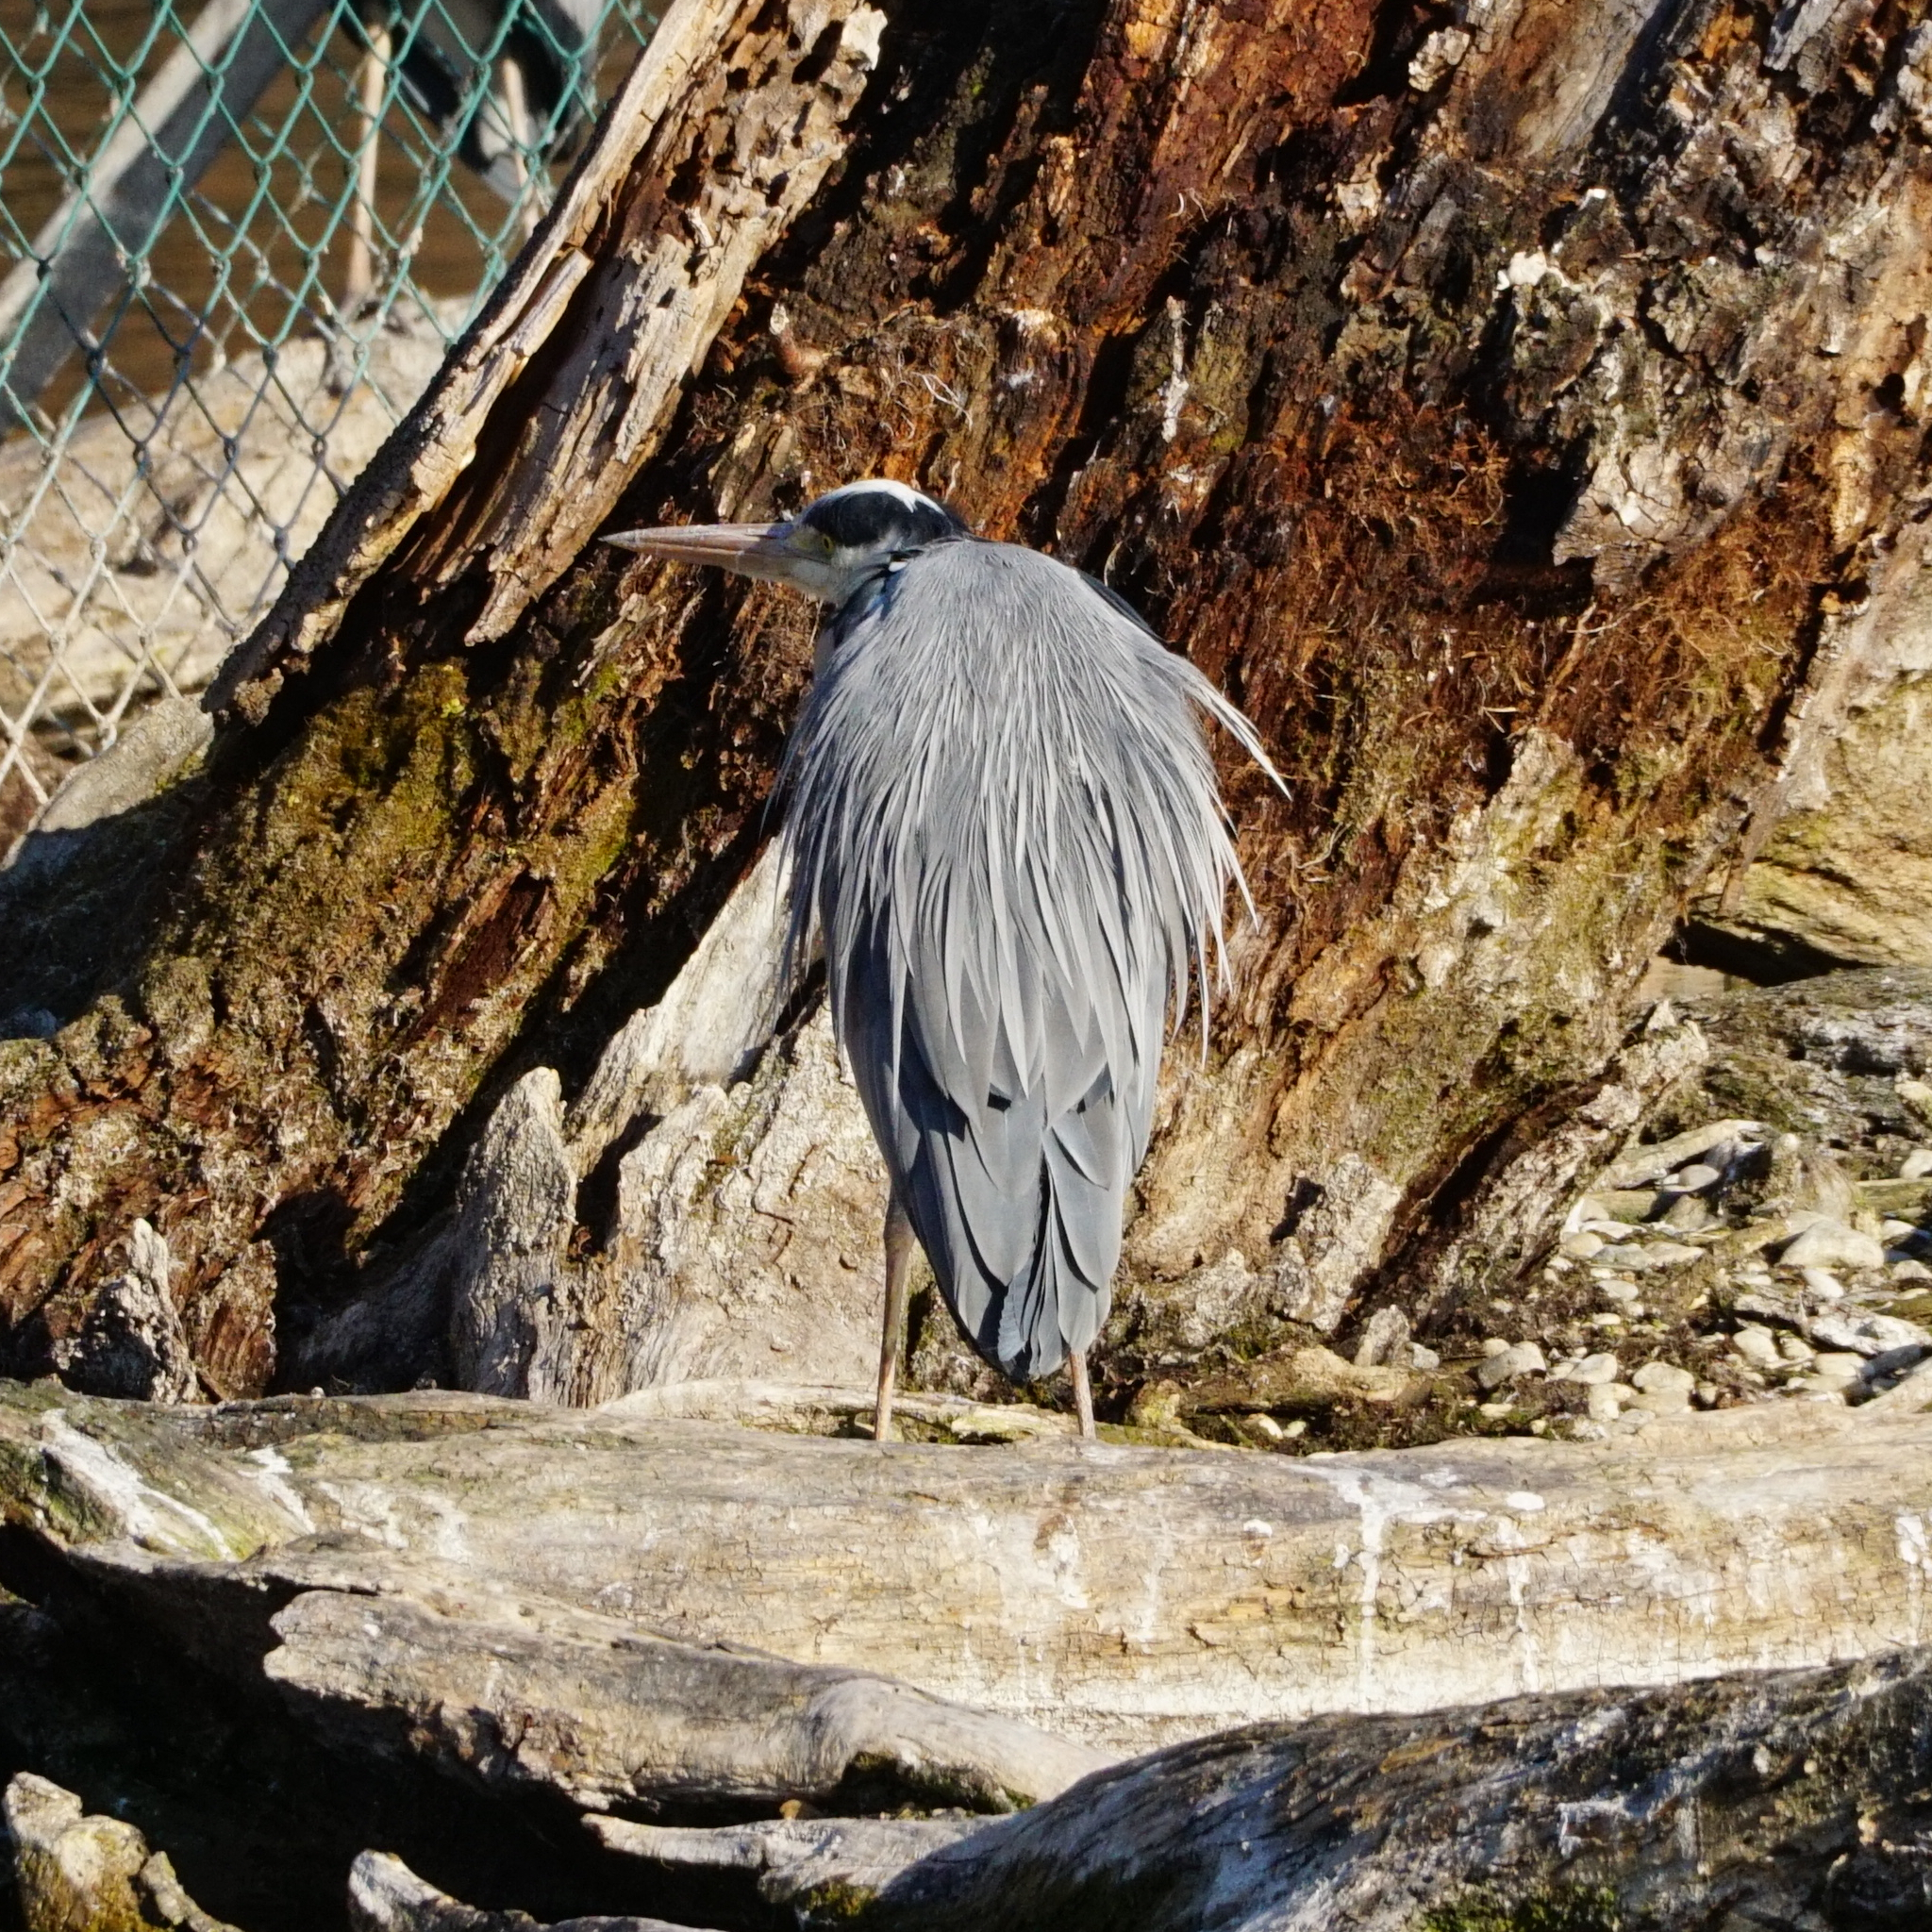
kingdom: Animalia
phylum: Chordata
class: Aves
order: Pelecaniformes
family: Ardeidae
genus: Ardea
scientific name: Ardea cinerea
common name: Grey heron
